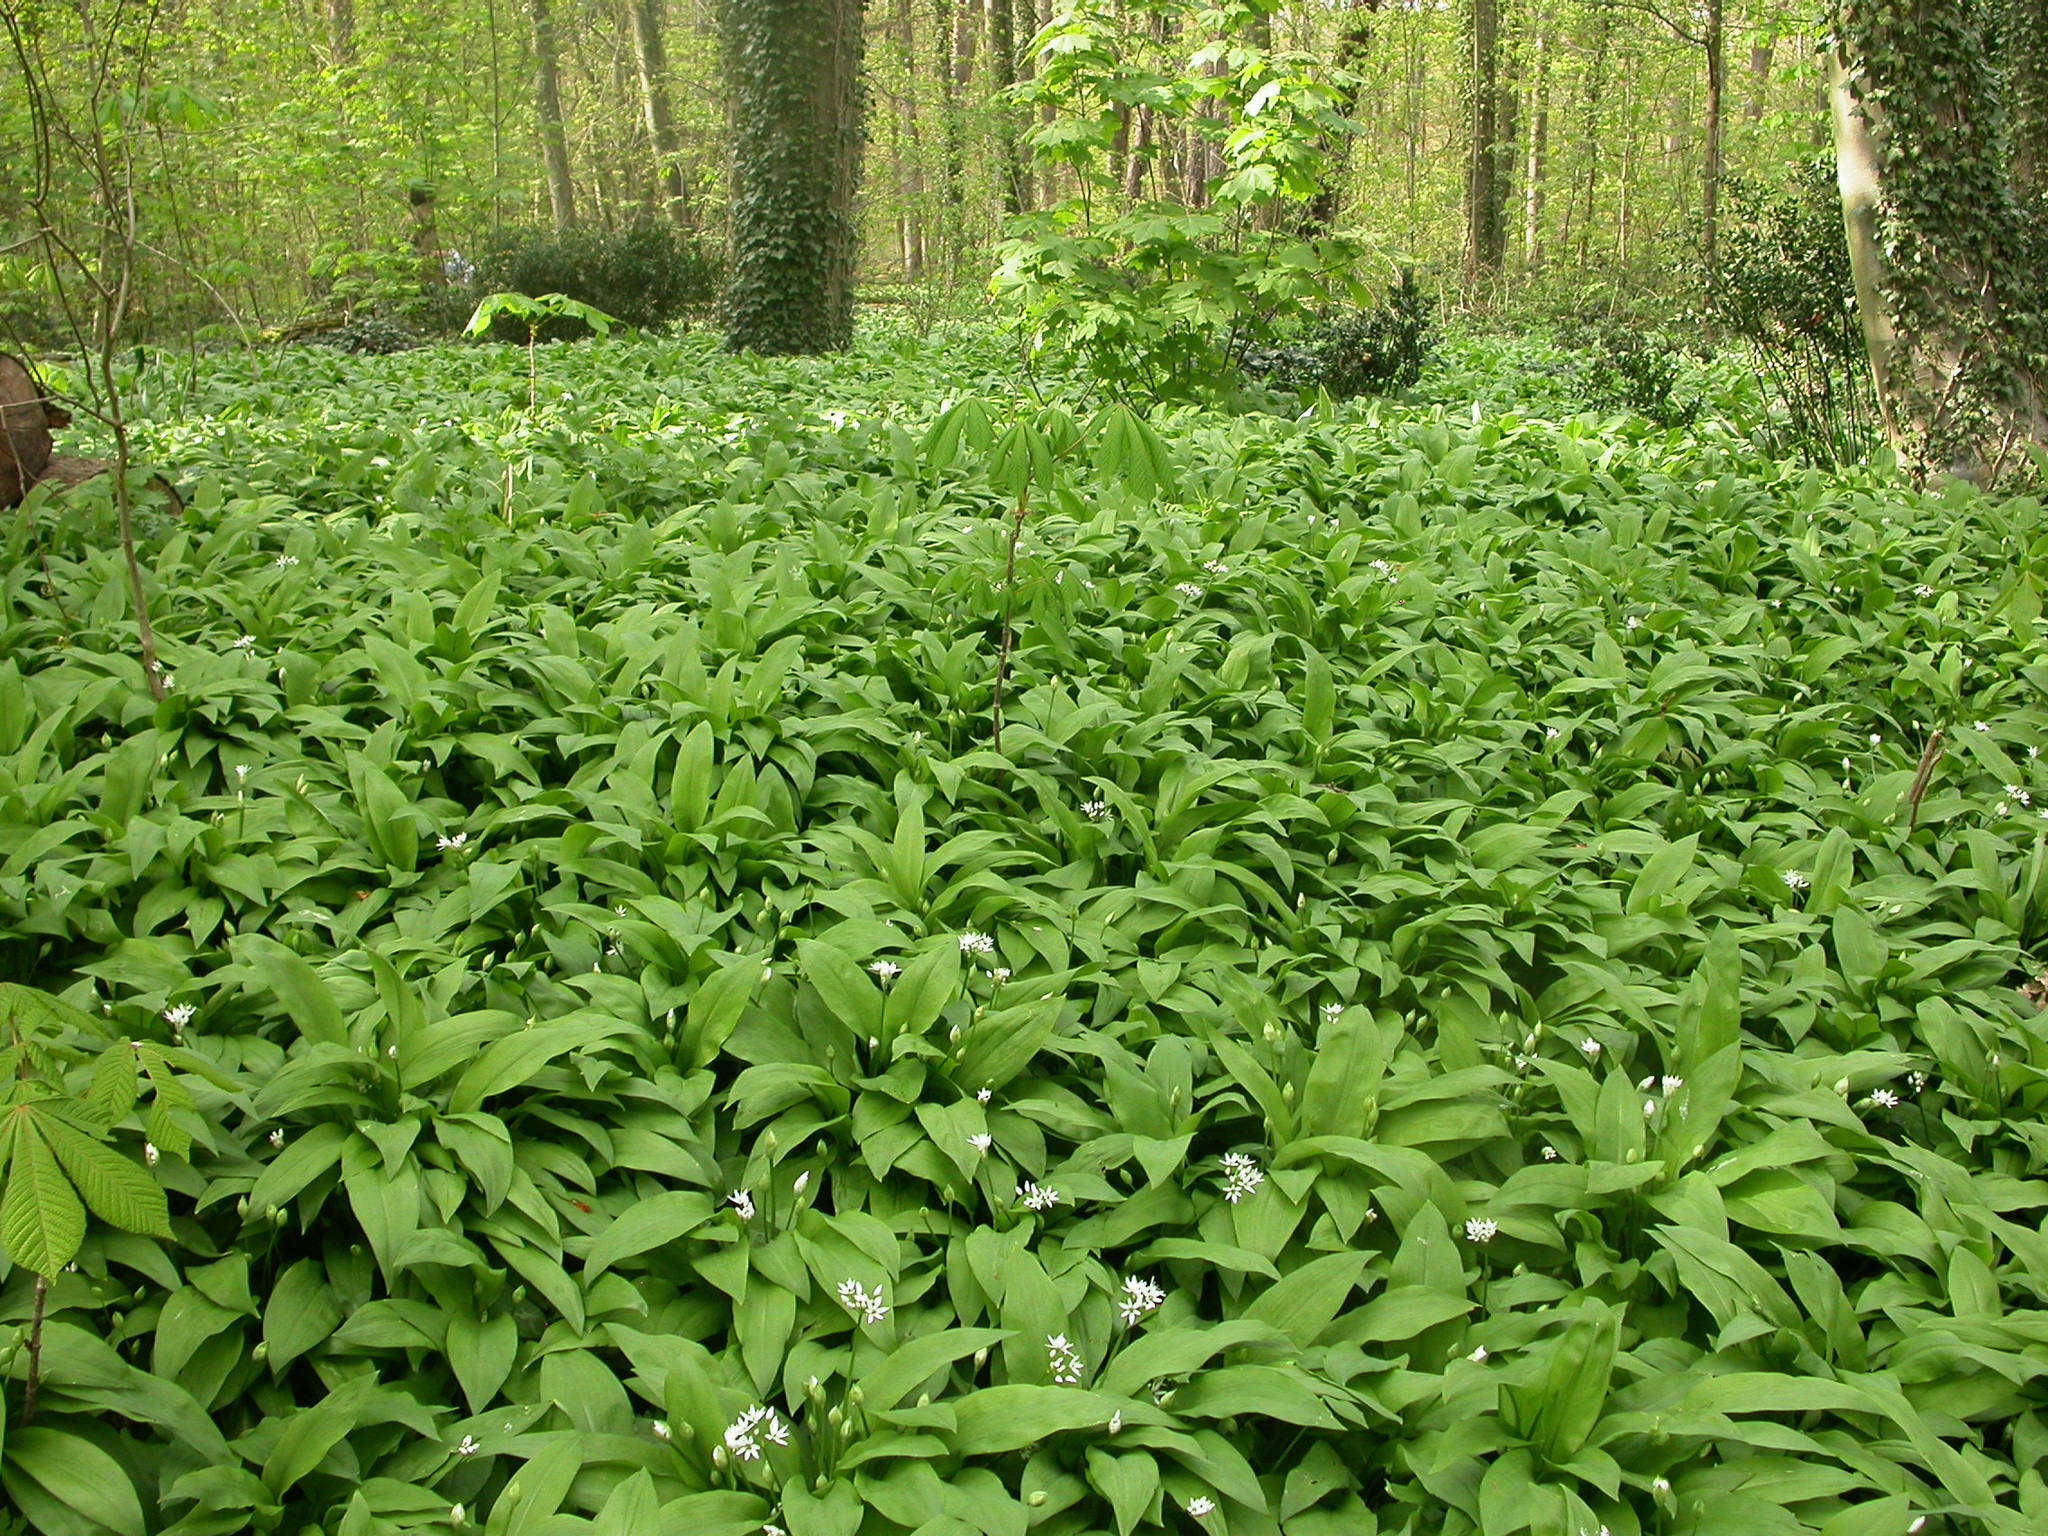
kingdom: Plantae
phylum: Tracheophyta
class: Liliopsida
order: Asparagales
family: Amaryllidaceae
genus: Allium
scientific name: Allium ursinum
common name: Ramsons
